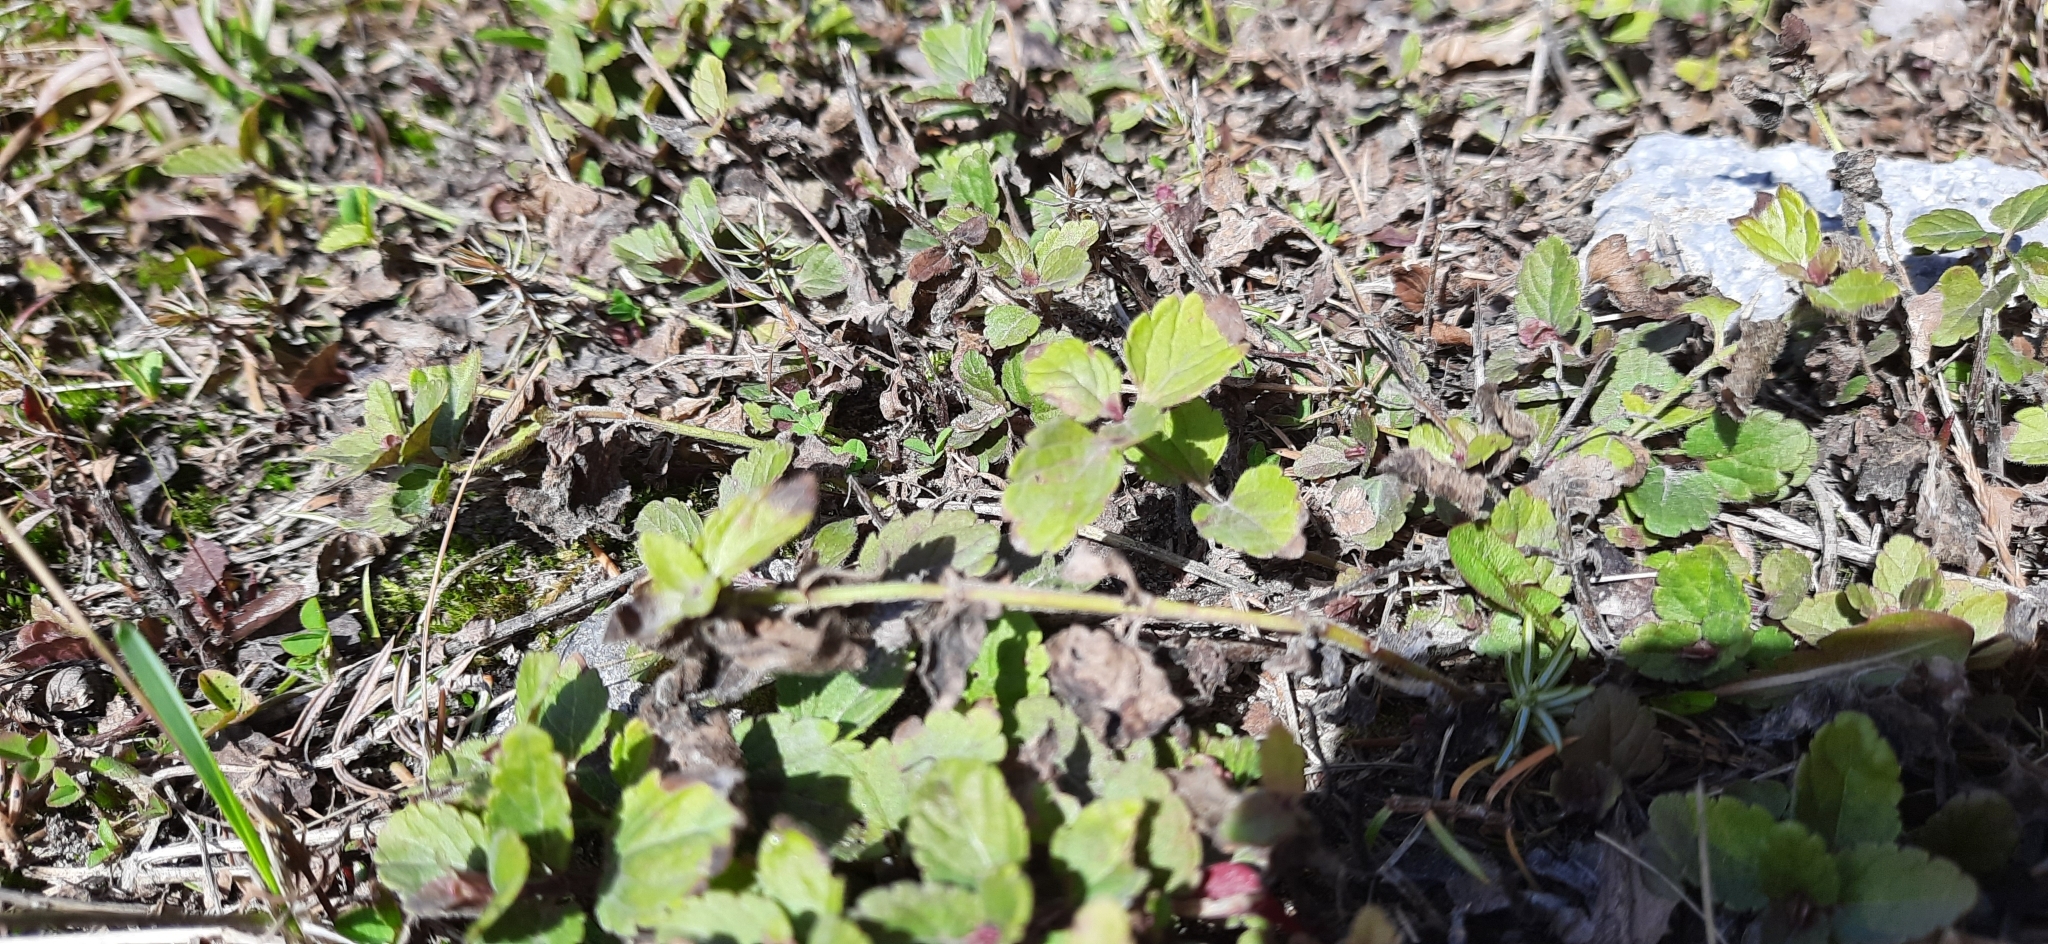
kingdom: Plantae
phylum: Tracheophyta
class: Magnoliopsida
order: Lamiales
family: Plantaginaceae
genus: Veronica
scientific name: Veronica chamaedrys
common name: Germander speedwell
